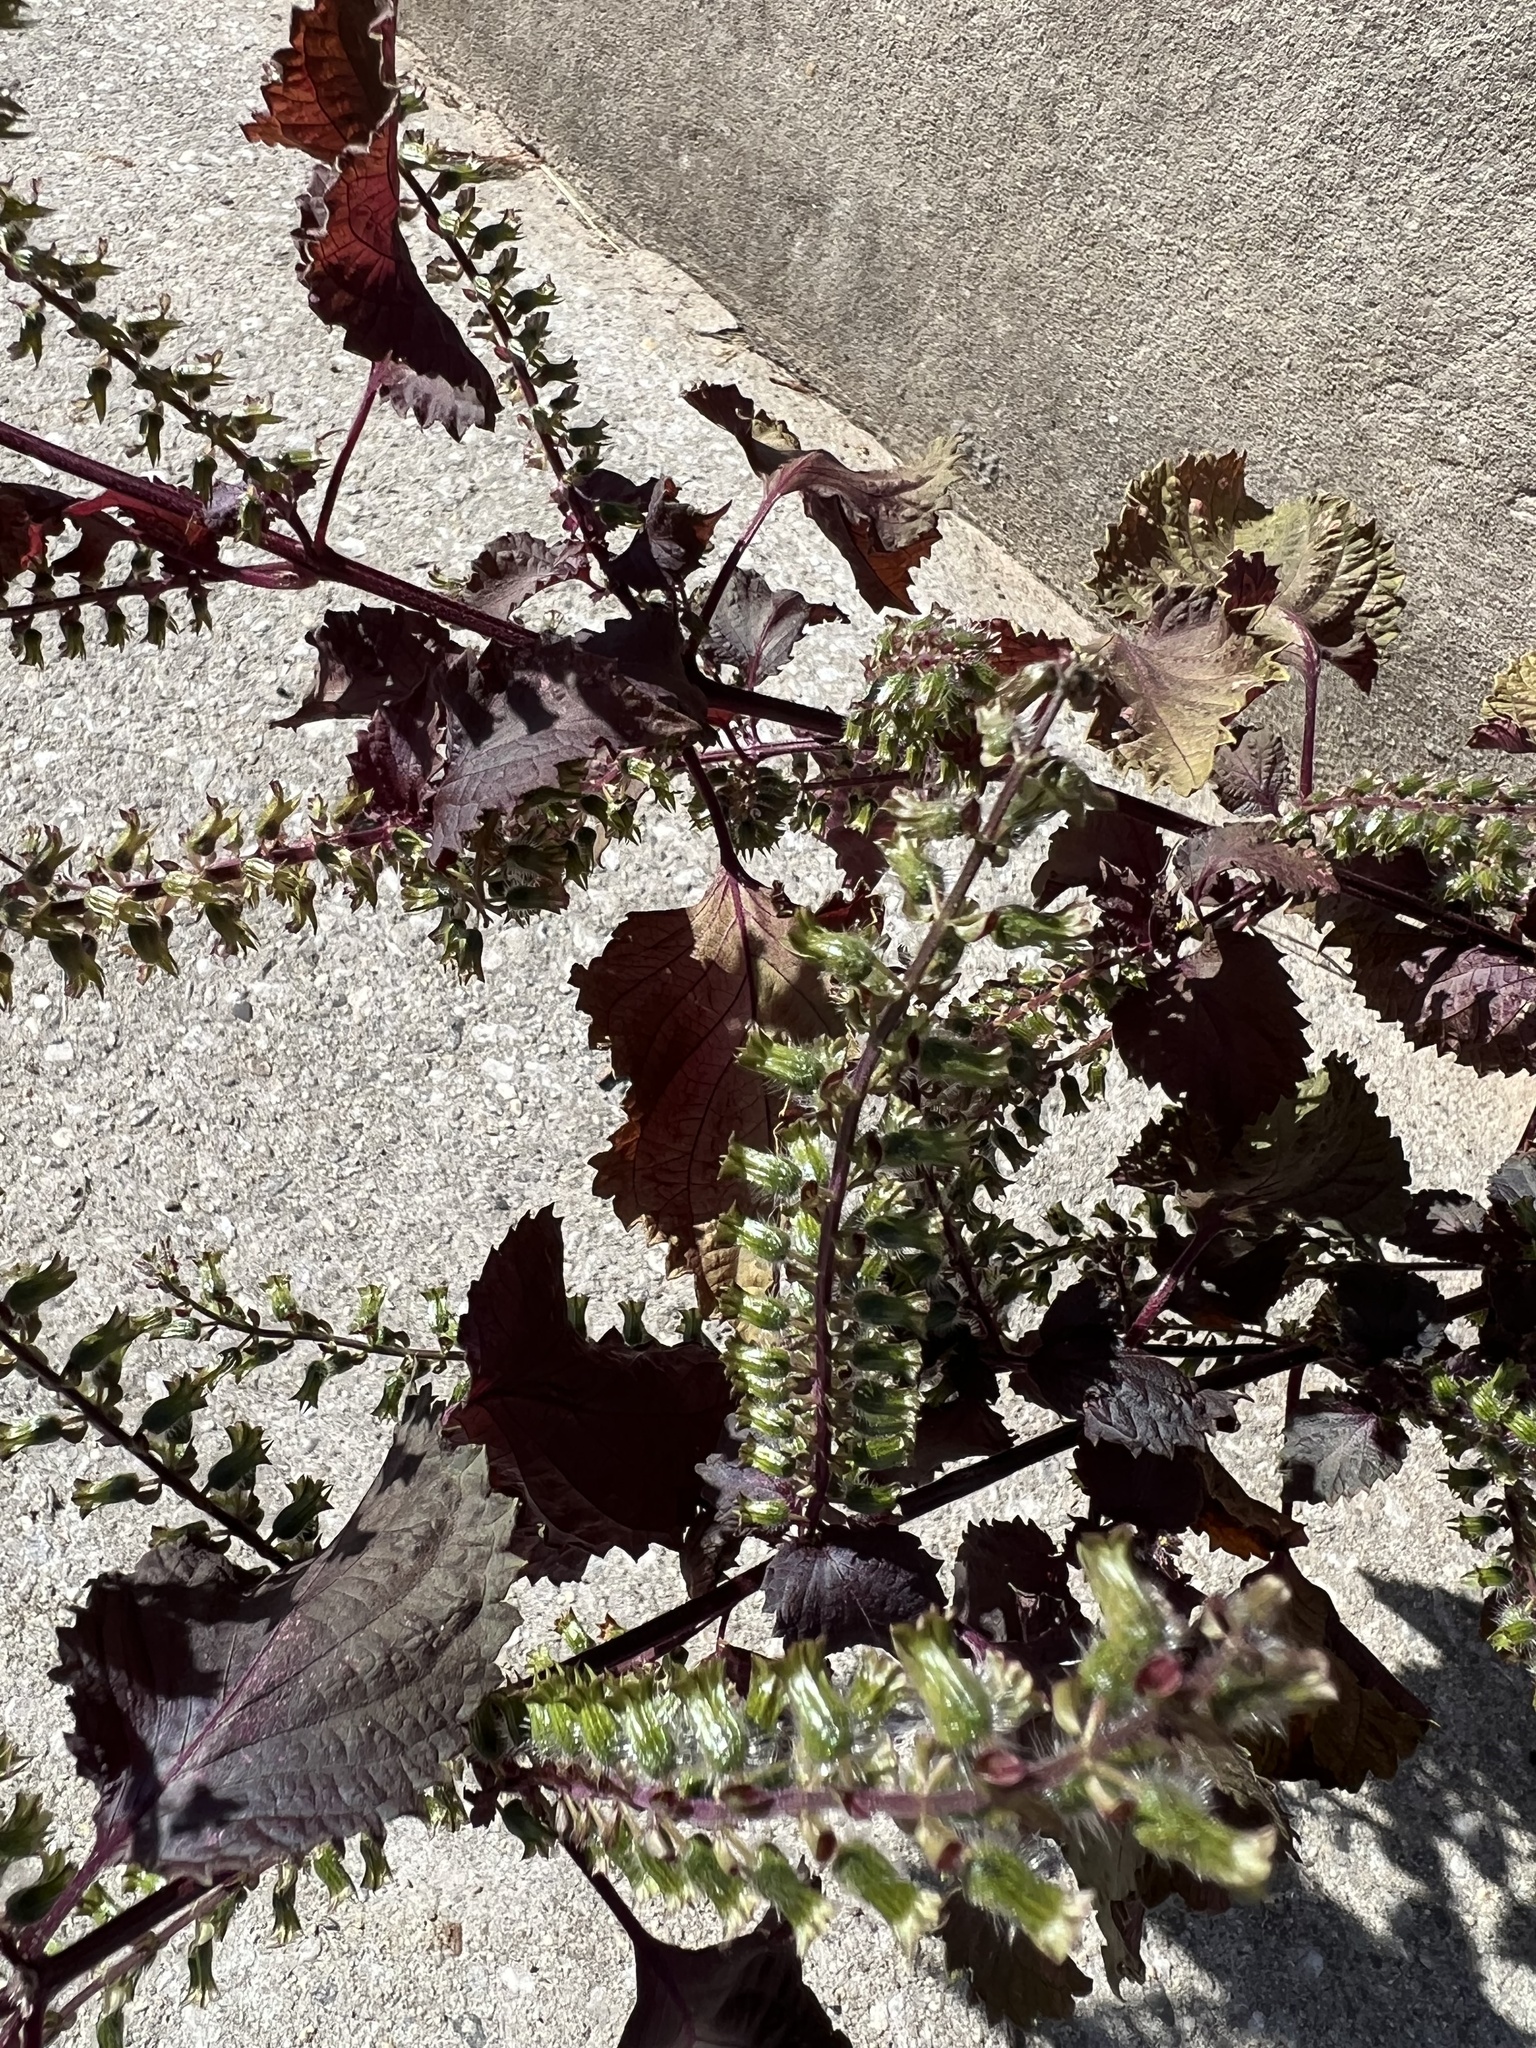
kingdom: Plantae
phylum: Tracheophyta
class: Magnoliopsida
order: Lamiales
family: Lamiaceae
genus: Perilla
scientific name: Perilla frutescens
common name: Perilla
